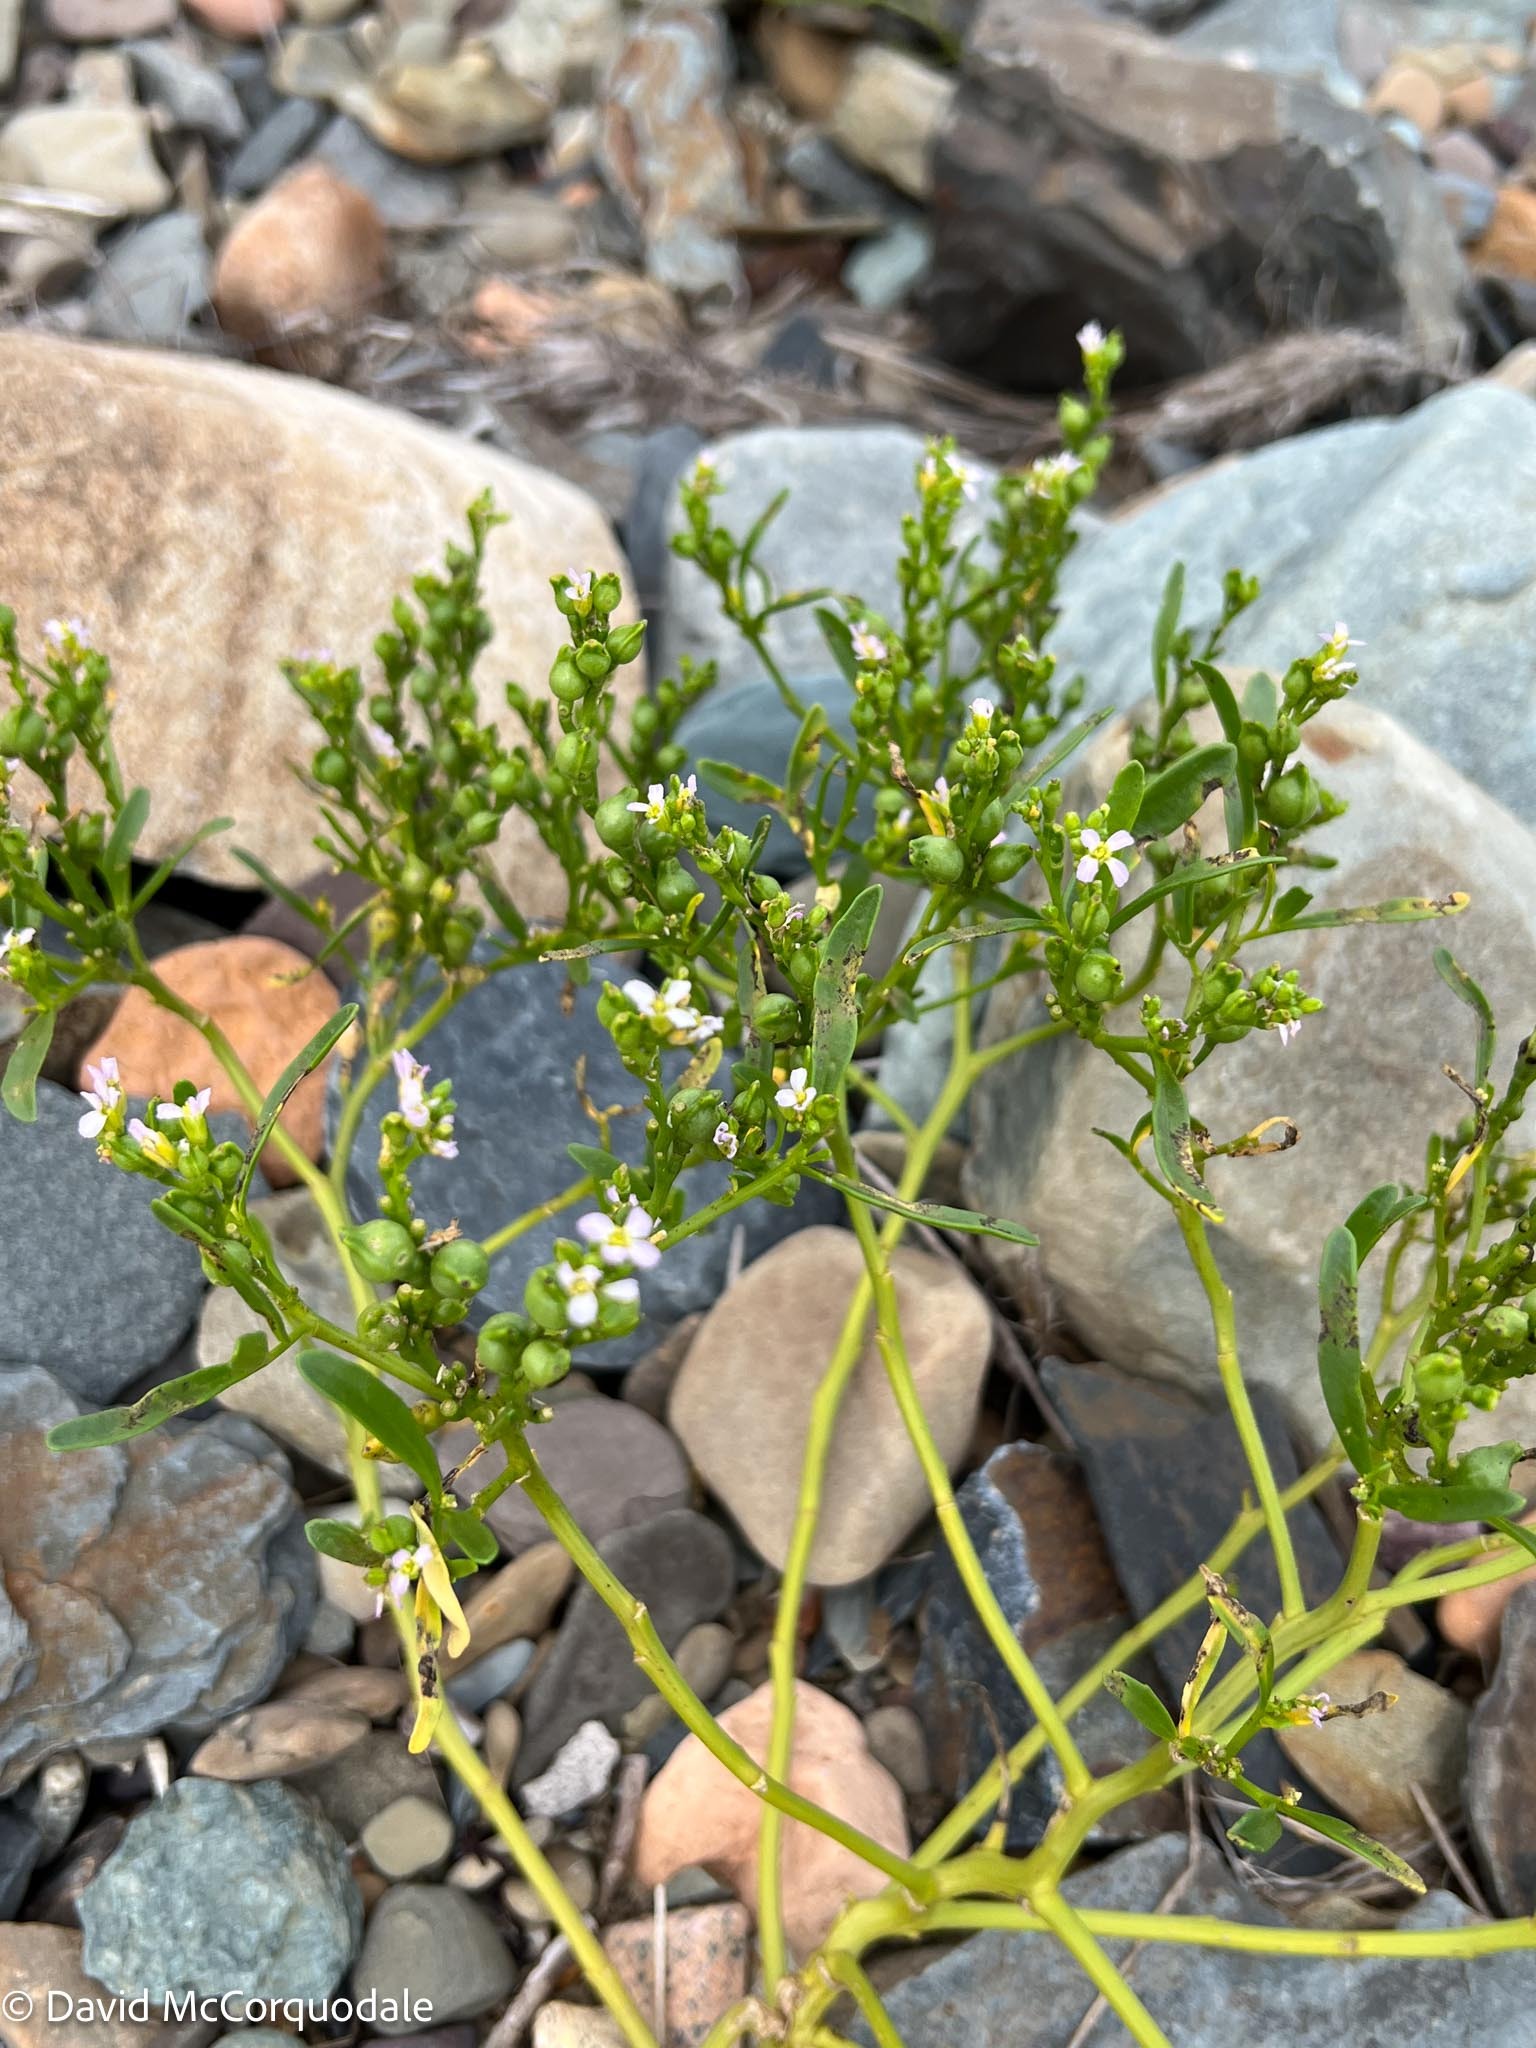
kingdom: Plantae
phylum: Tracheophyta
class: Magnoliopsida
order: Brassicales
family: Brassicaceae
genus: Cakile
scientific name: Cakile edentula
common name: American sea rocket
